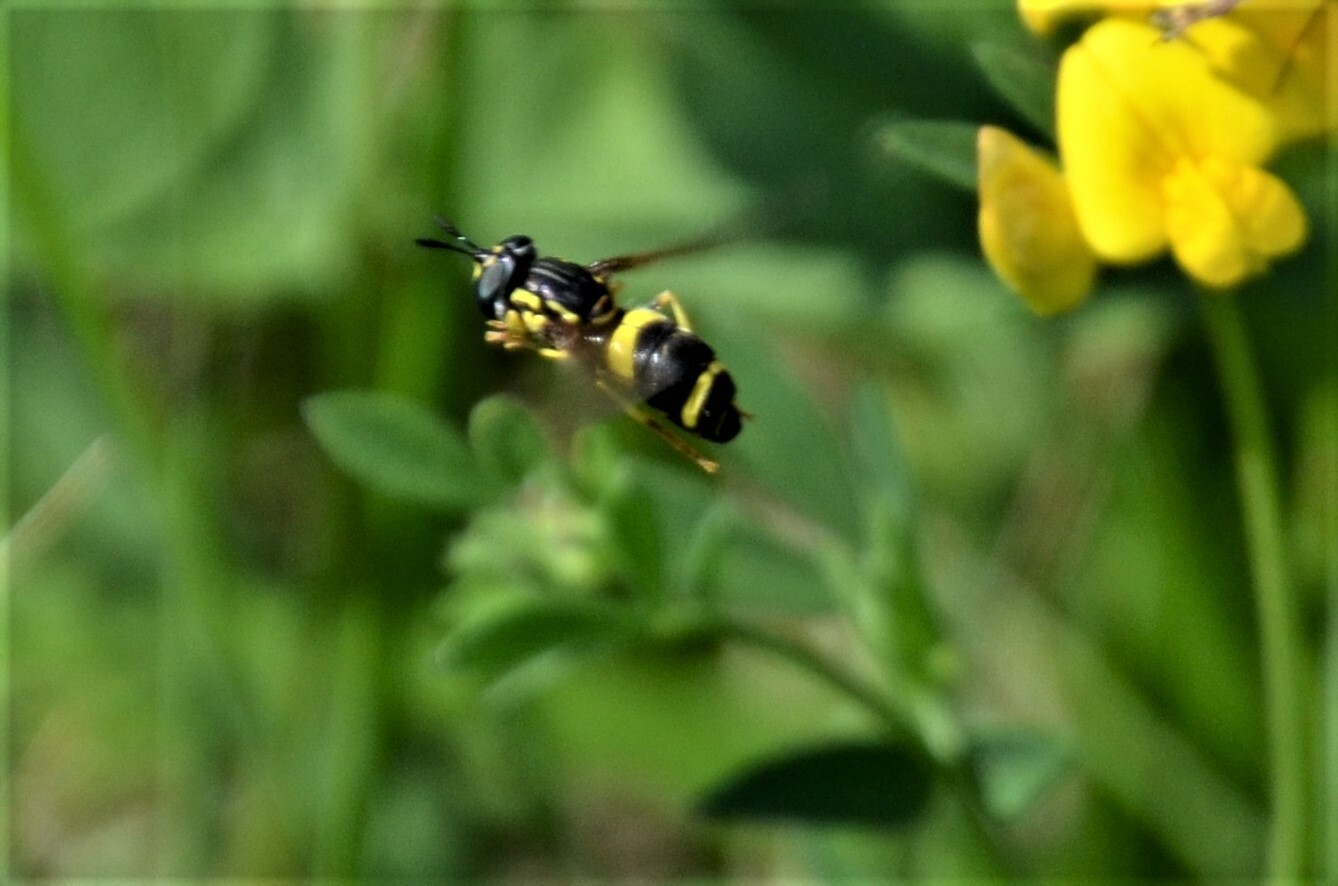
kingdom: Animalia
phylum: Arthropoda
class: Insecta
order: Diptera
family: Syrphidae
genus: Chrysotoxum
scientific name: Chrysotoxum bicincta
